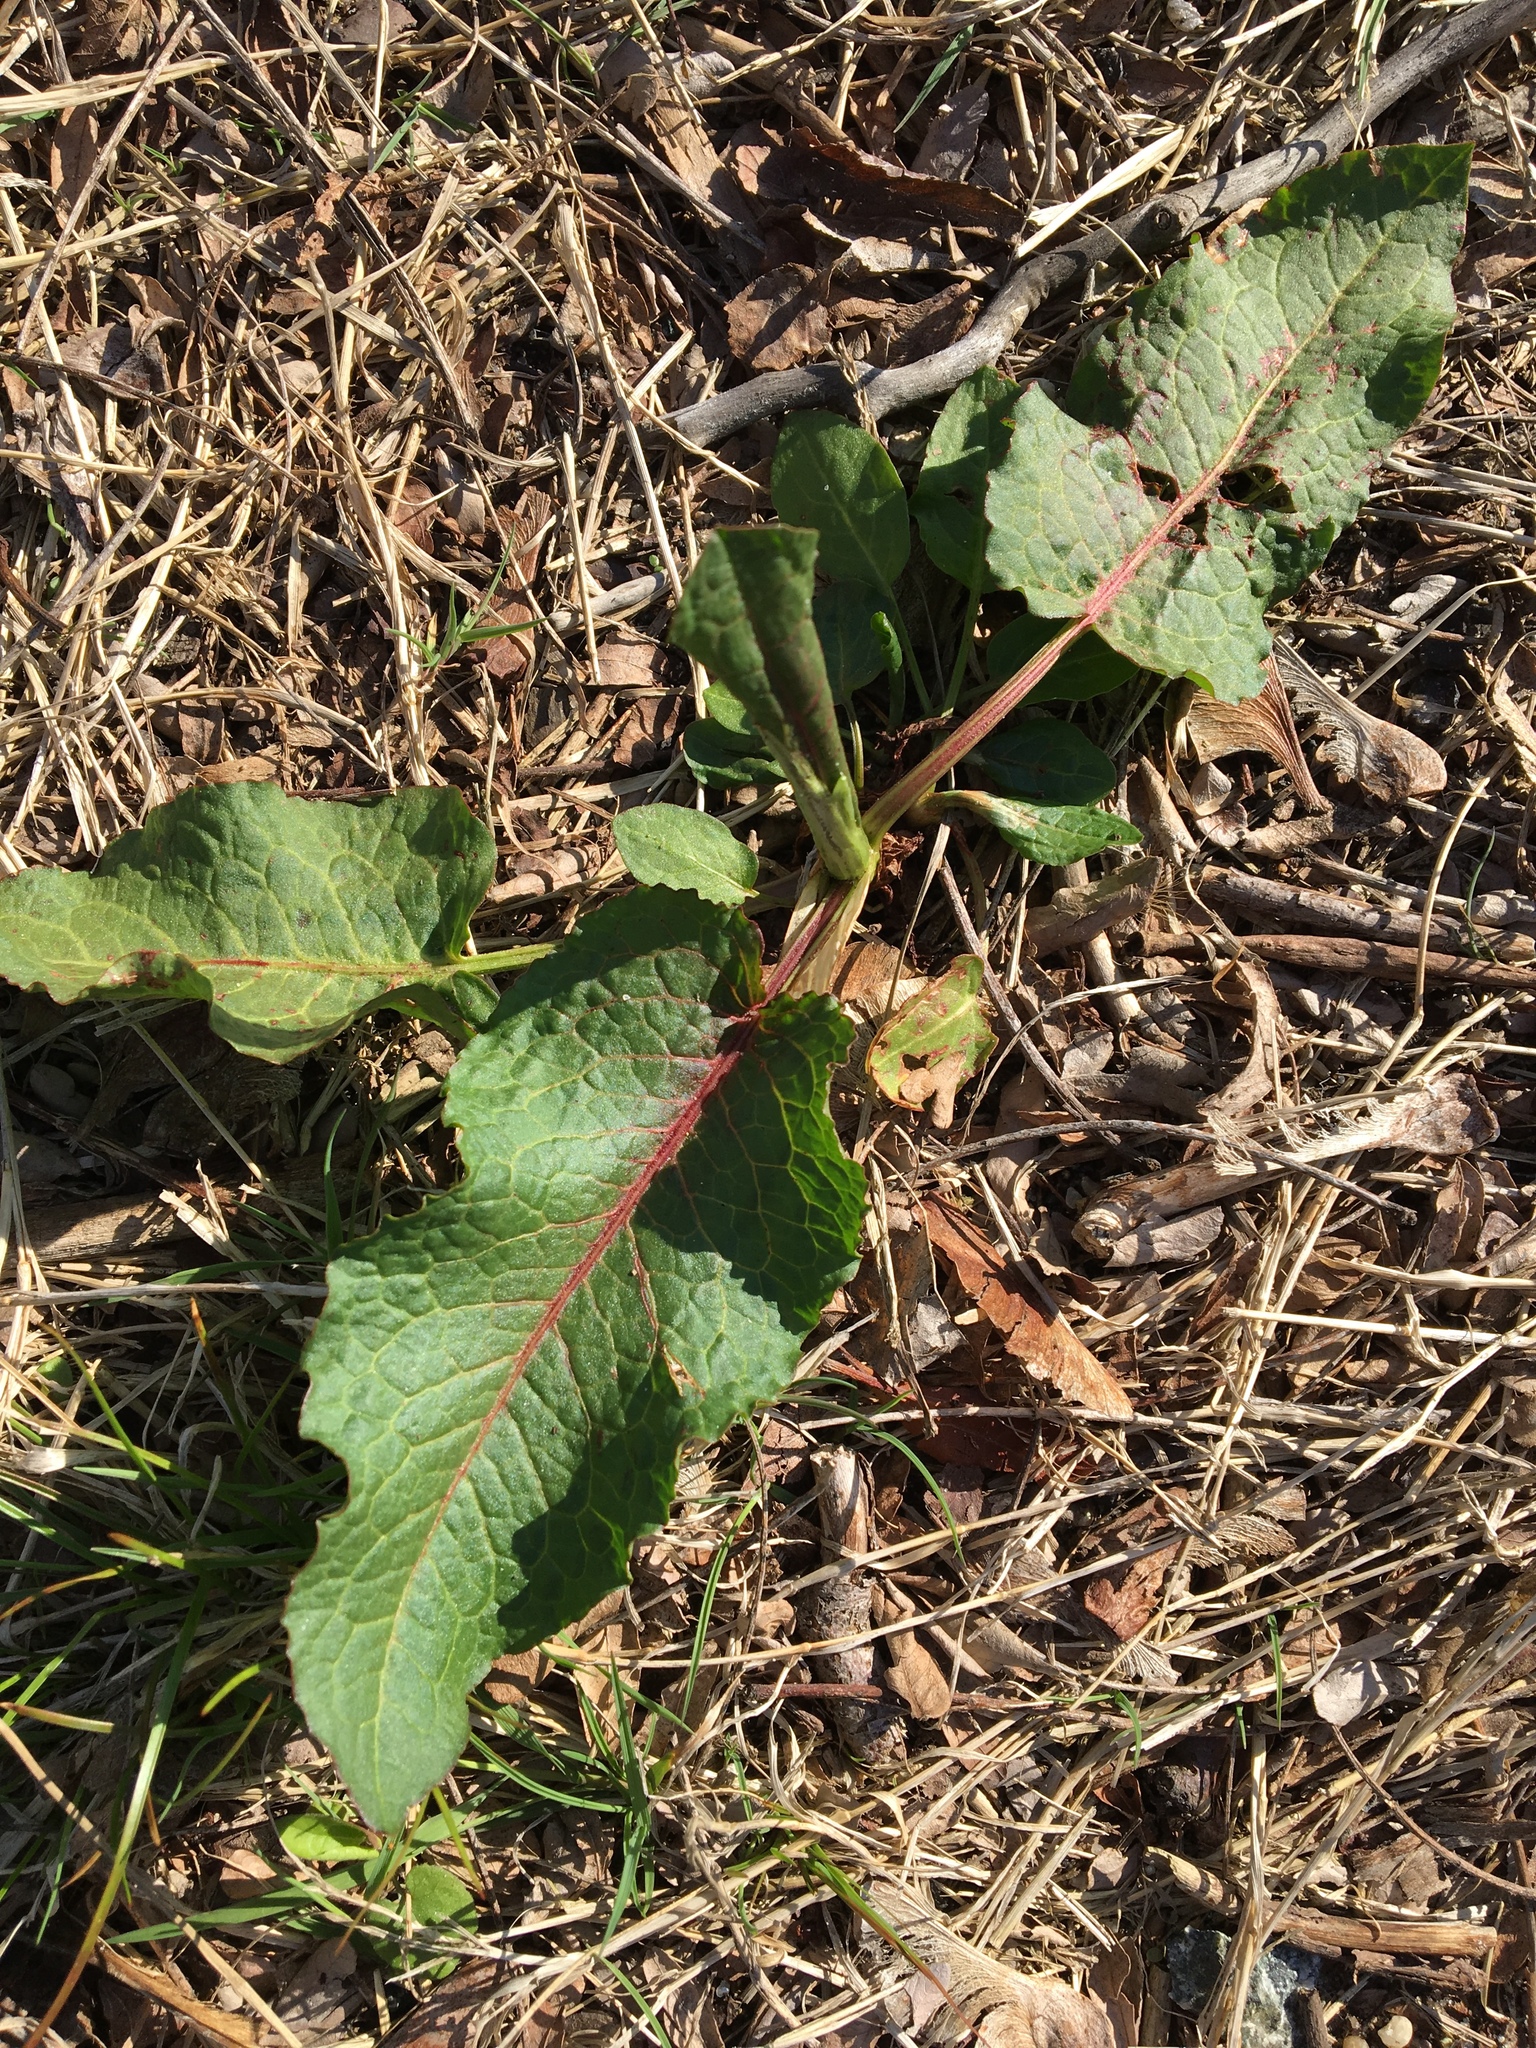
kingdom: Plantae
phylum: Tracheophyta
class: Magnoliopsida
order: Caryophyllales
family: Polygonaceae
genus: Rumex
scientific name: Rumex obtusifolius
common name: Bitter dock
